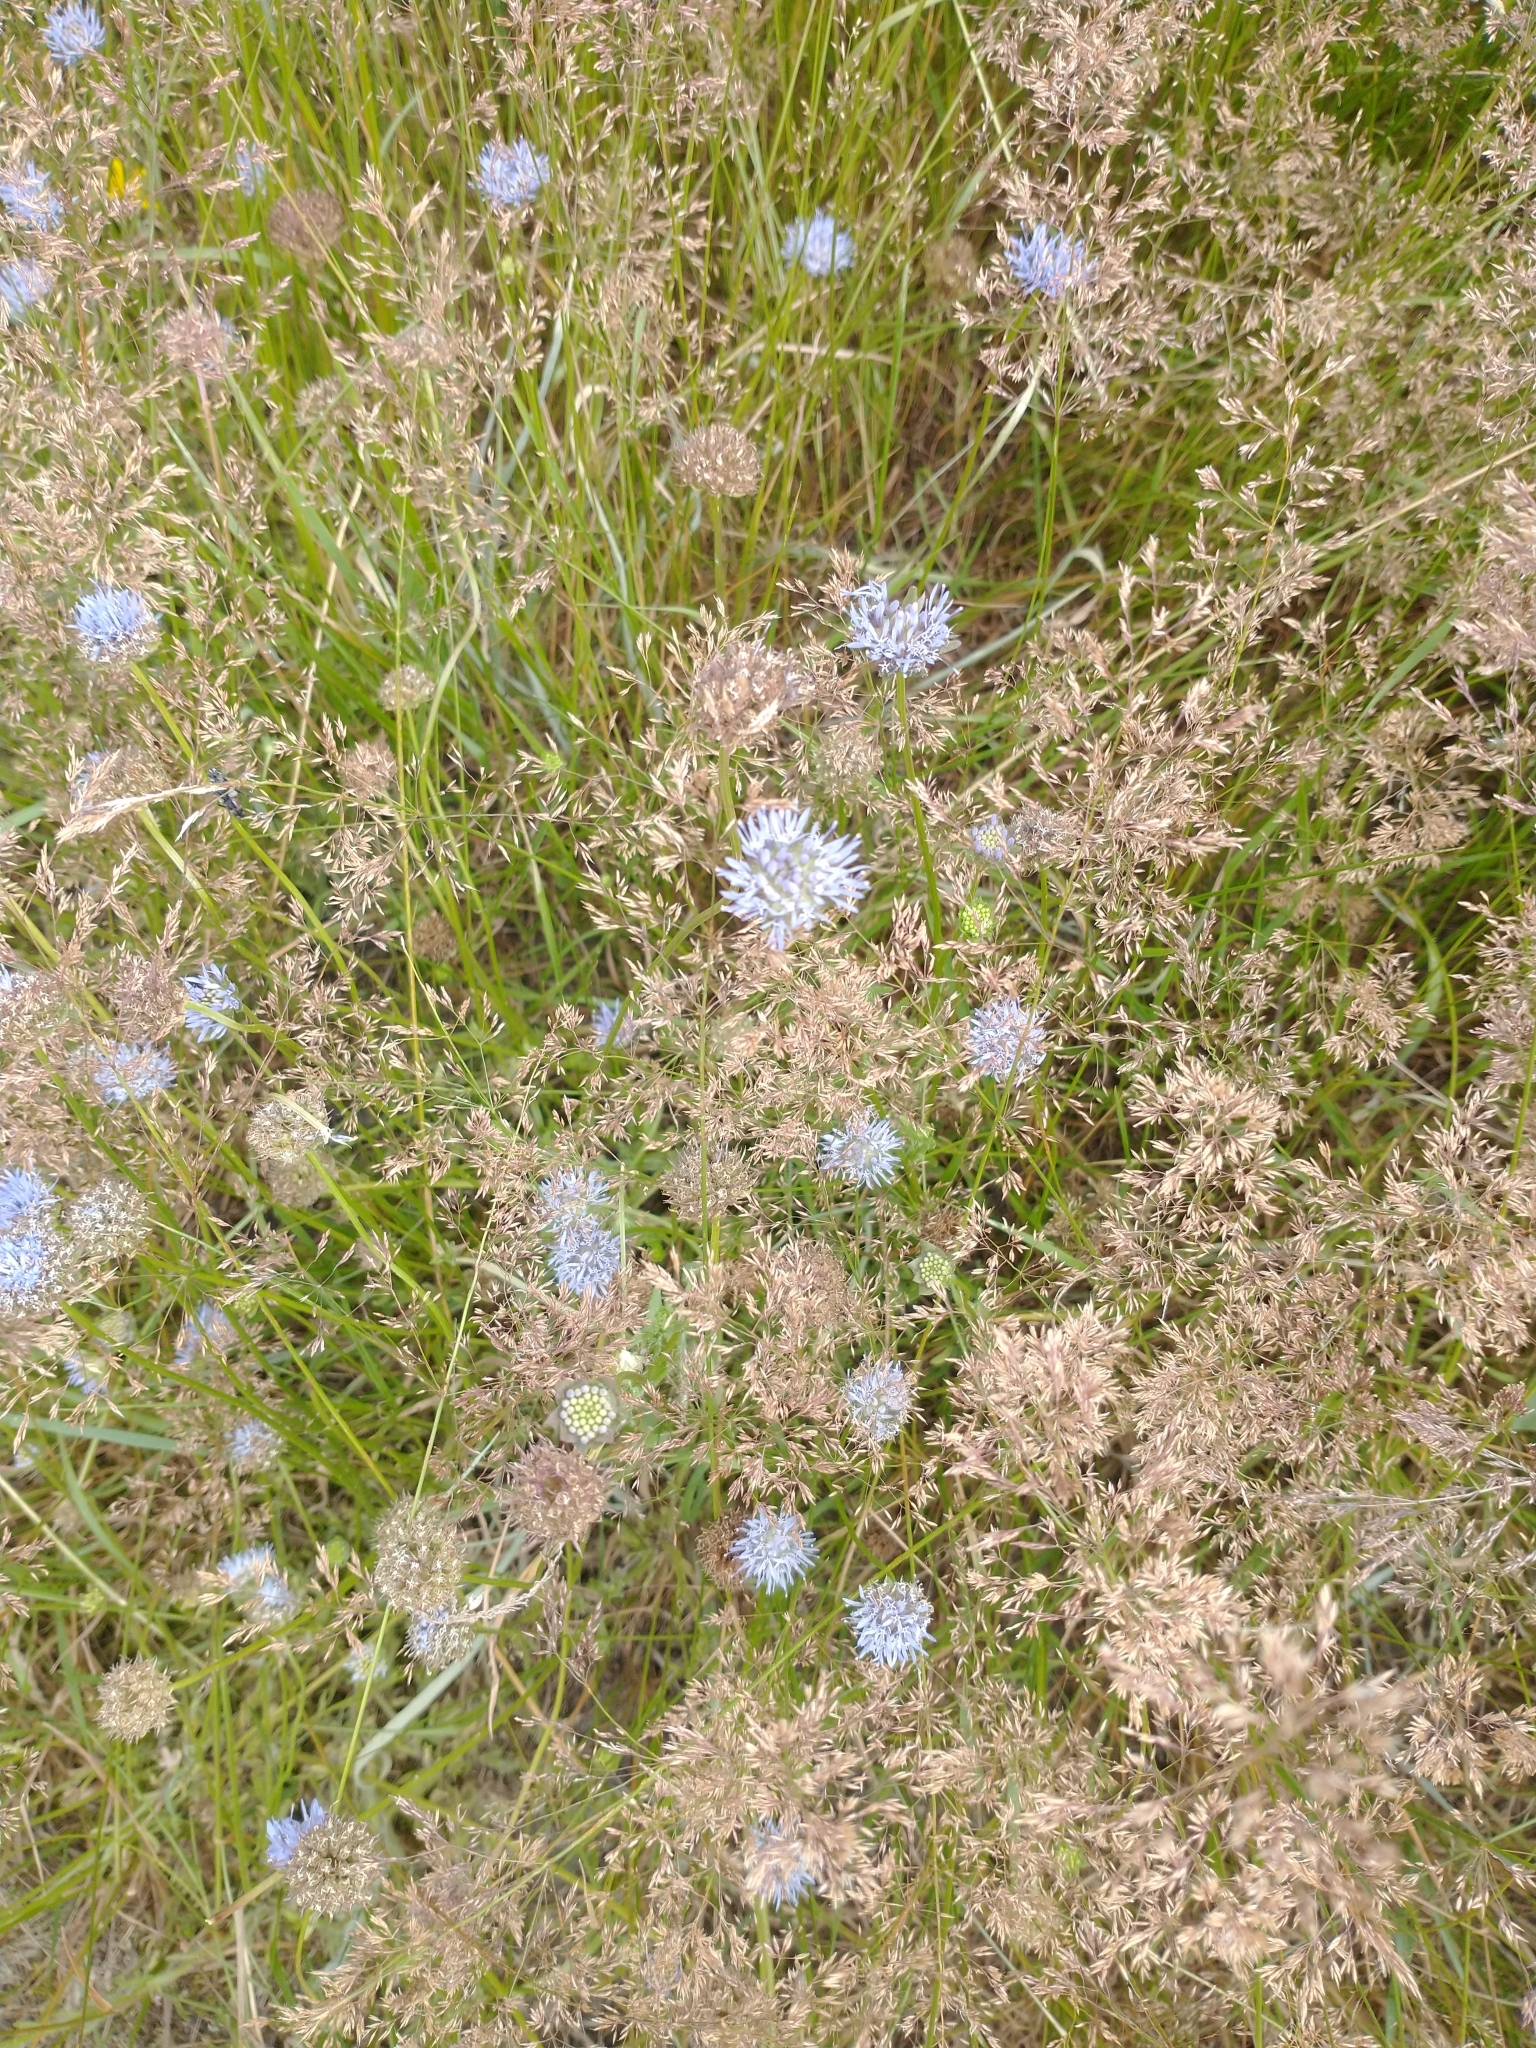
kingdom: Plantae
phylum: Tracheophyta
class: Magnoliopsida
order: Asterales
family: Campanulaceae
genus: Jasione
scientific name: Jasione montana
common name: Sheep's-bit
